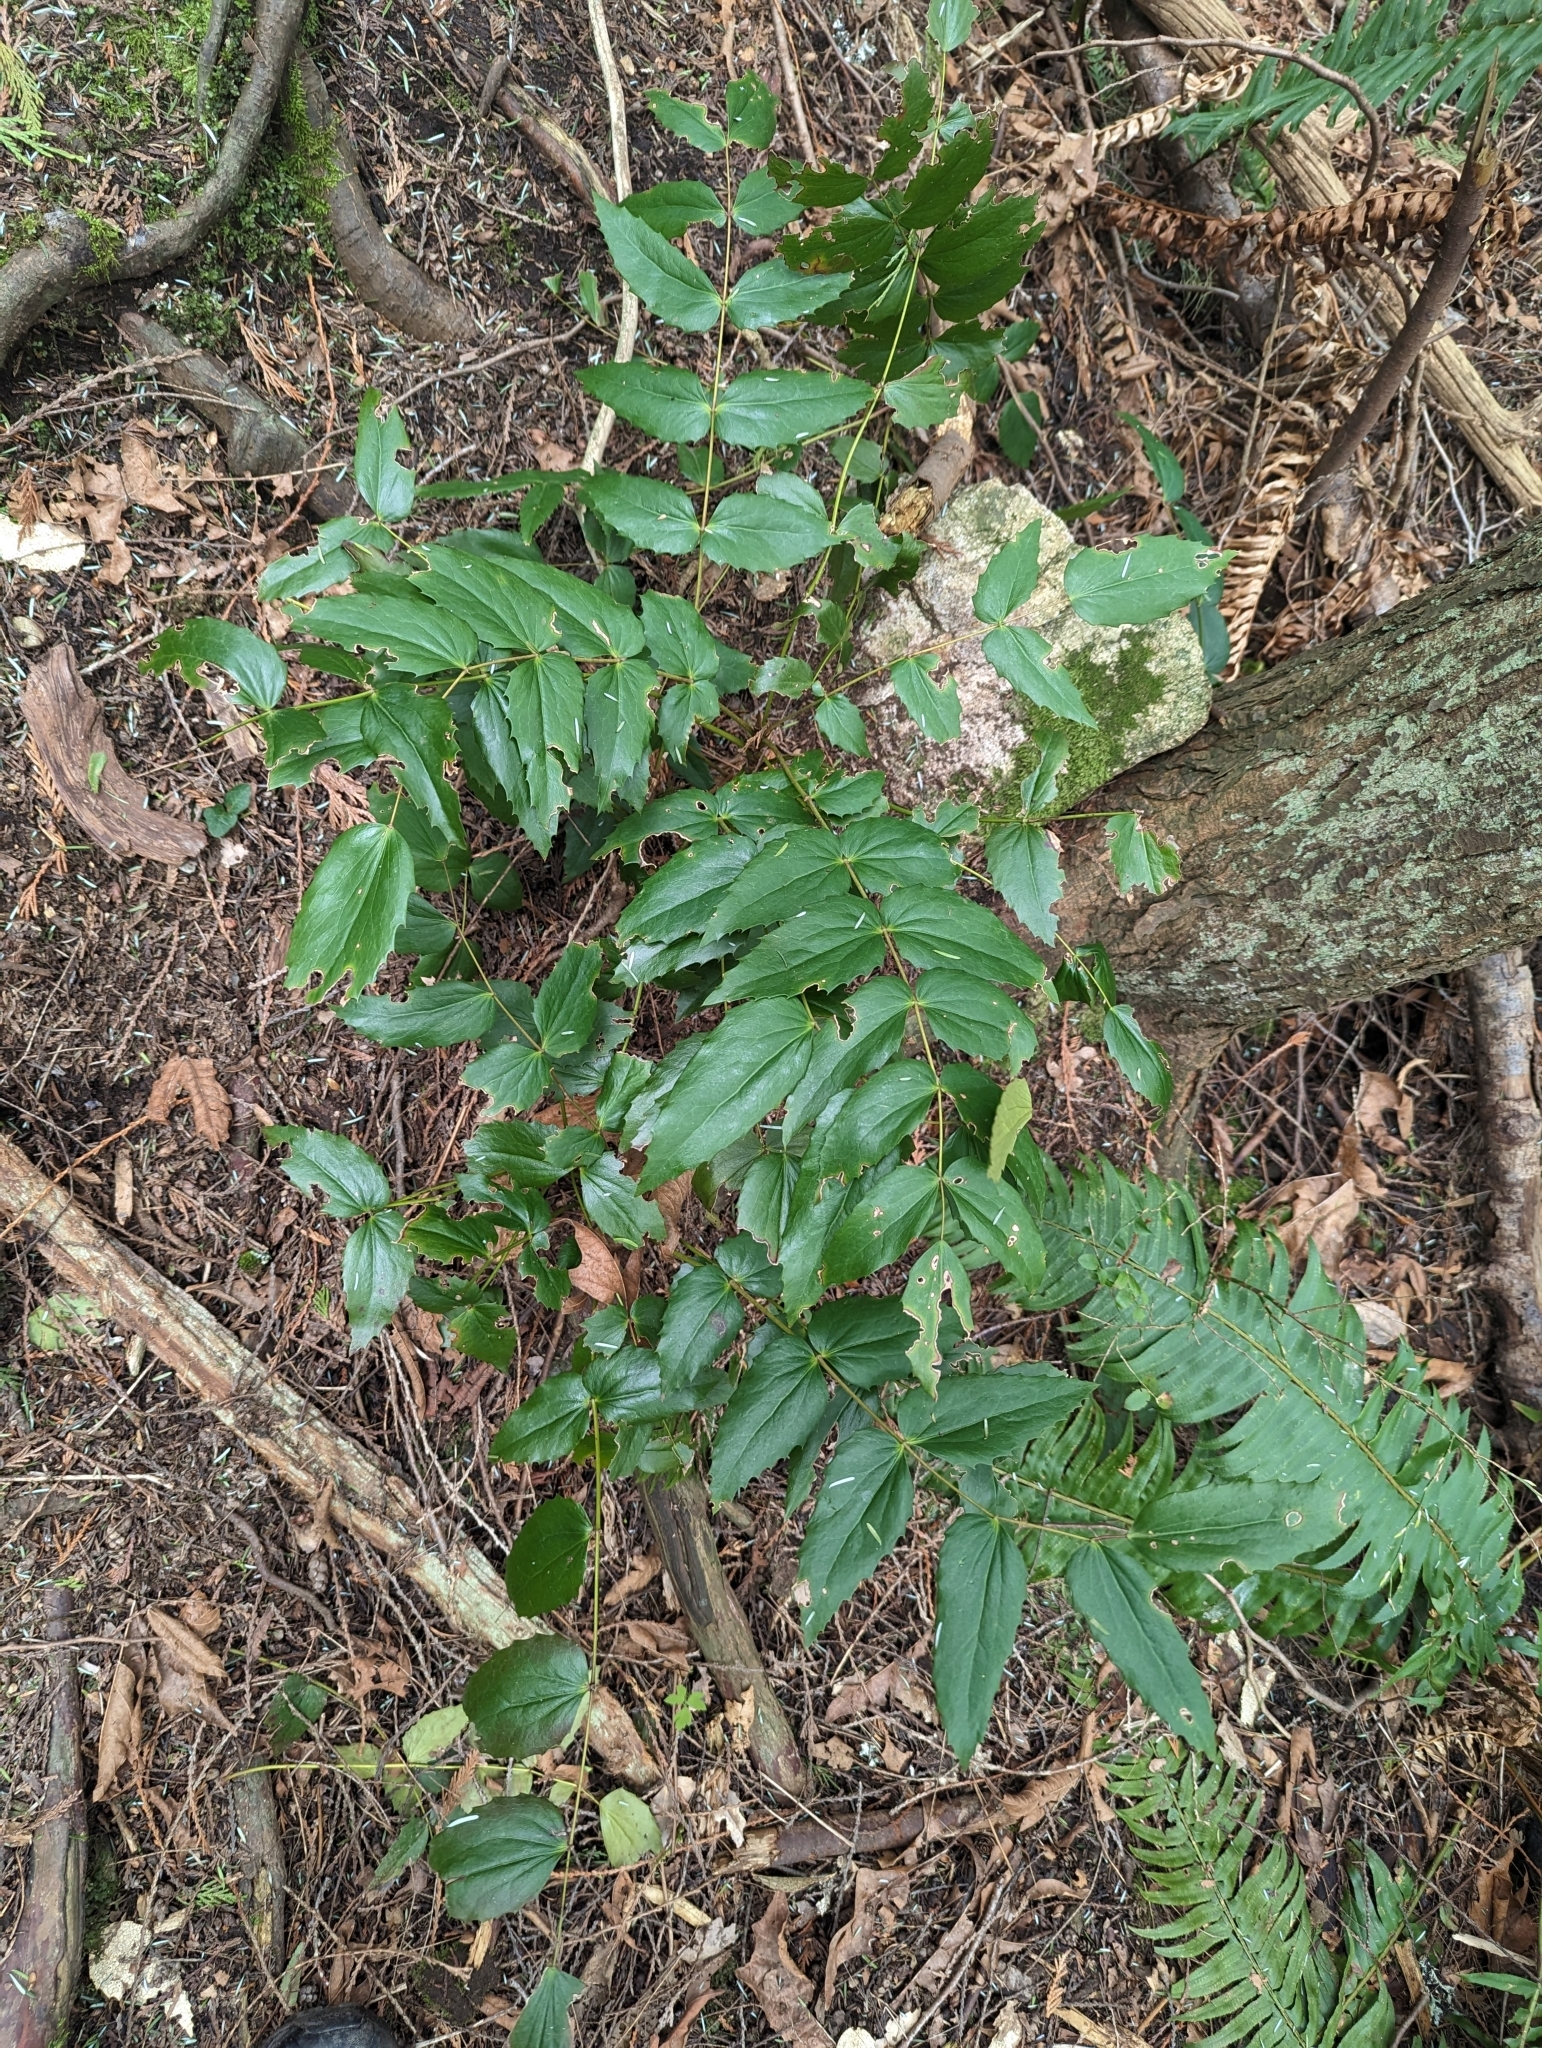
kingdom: Plantae
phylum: Tracheophyta
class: Magnoliopsida
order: Ranunculales
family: Berberidaceae
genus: Mahonia
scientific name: Mahonia nervosa
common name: Cascade oregon-grape
